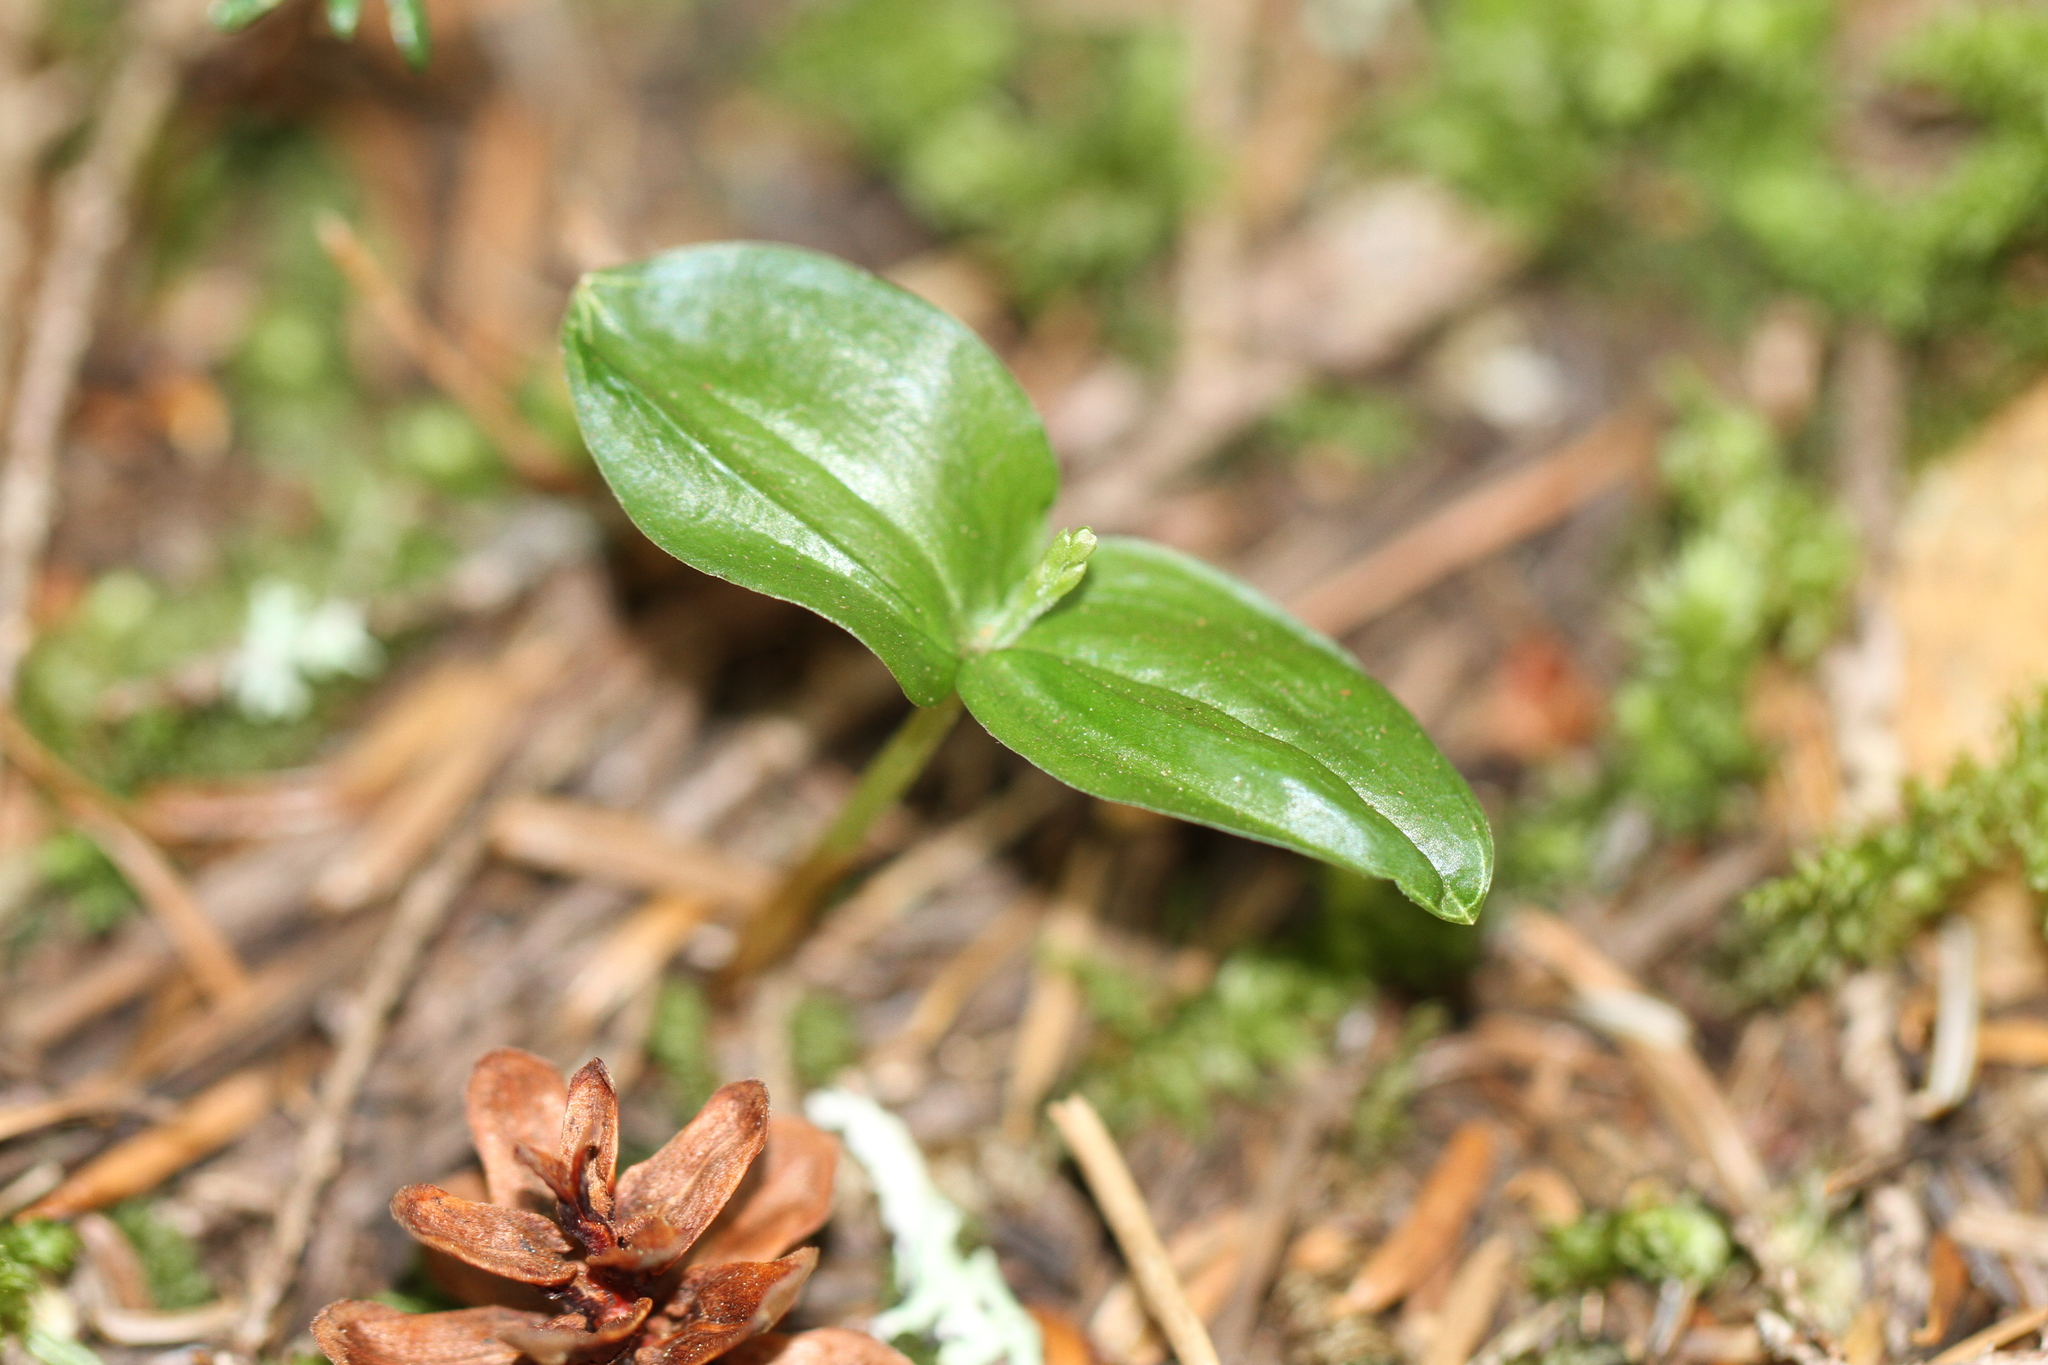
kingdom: Plantae
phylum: Tracheophyta
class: Liliopsida
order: Asparagales
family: Orchidaceae
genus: Neottia
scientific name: Neottia cordata
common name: Lesser twayblade
